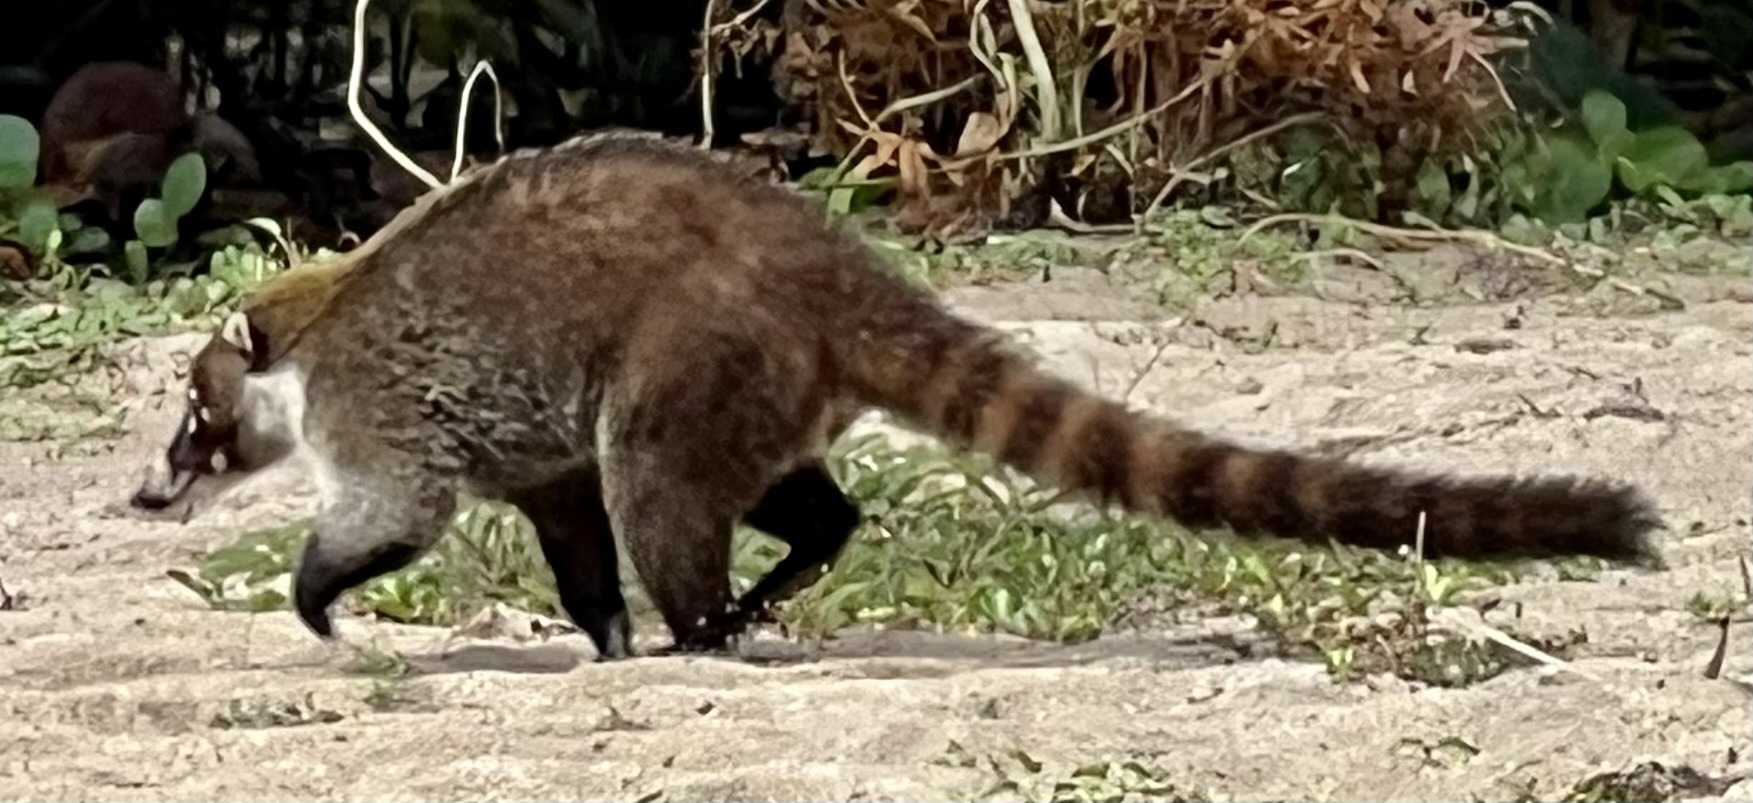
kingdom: Animalia
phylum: Chordata
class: Mammalia
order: Carnivora
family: Procyonidae
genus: Nasua
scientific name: Nasua narica
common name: White-nosed coati
